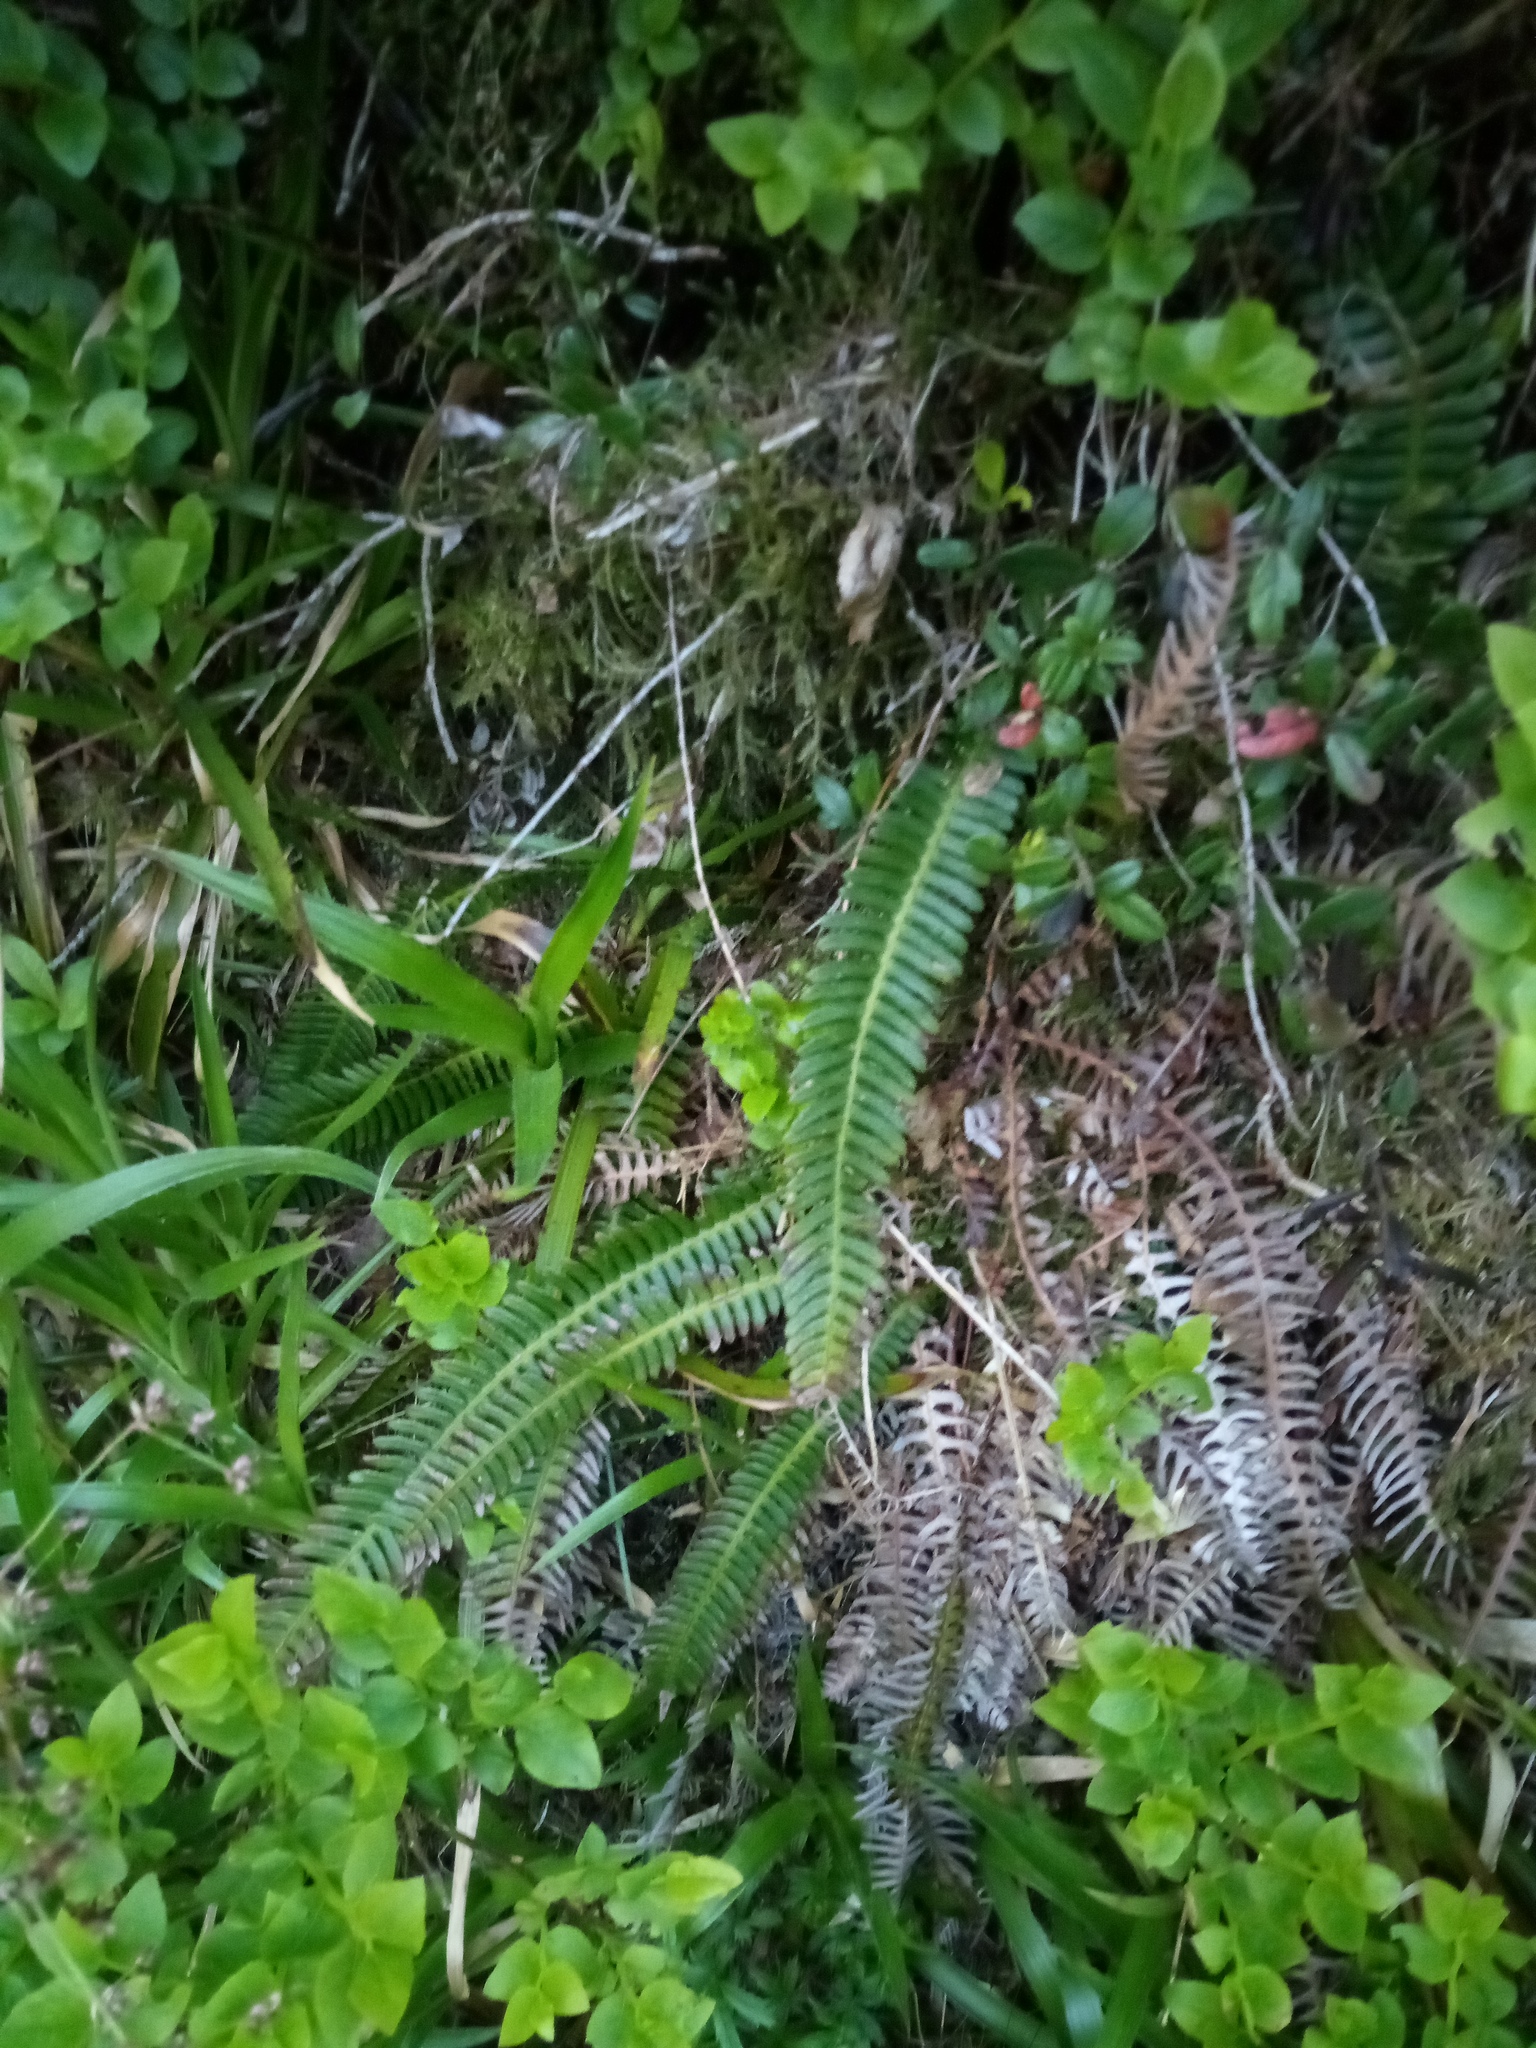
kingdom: Plantae
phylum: Tracheophyta
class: Polypodiopsida
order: Polypodiales
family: Blechnaceae
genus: Struthiopteris
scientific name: Struthiopteris spicant
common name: Deer fern
